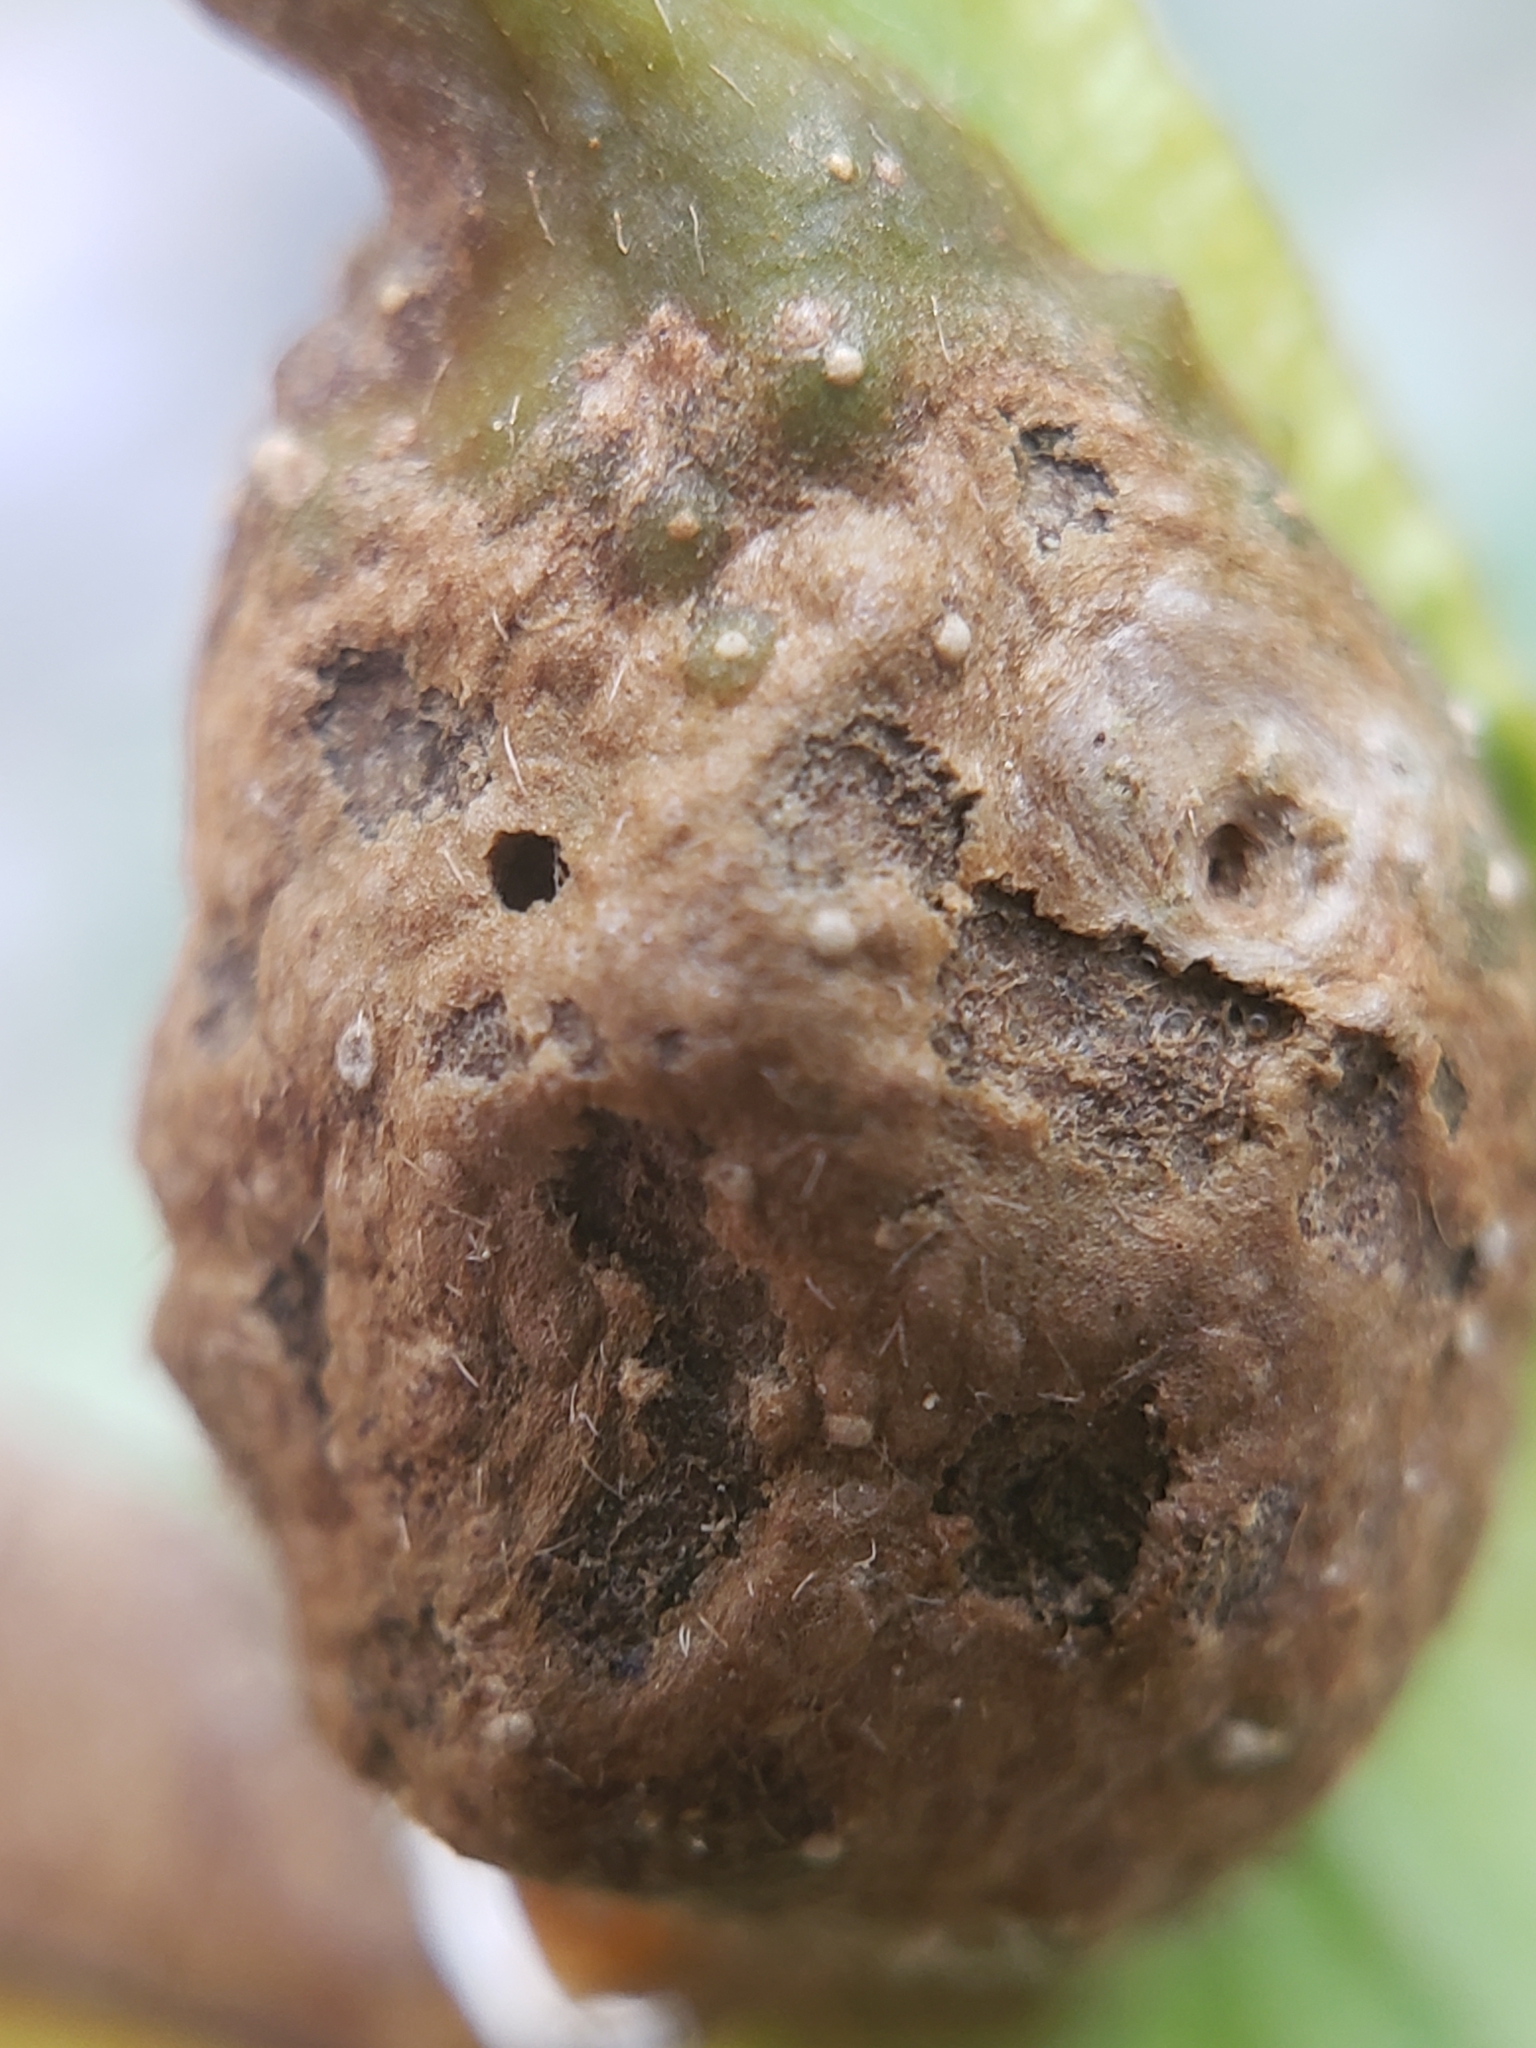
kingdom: Animalia
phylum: Arthropoda
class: Insecta
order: Hymenoptera
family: Cynipidae
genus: Andricus
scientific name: Andricus
